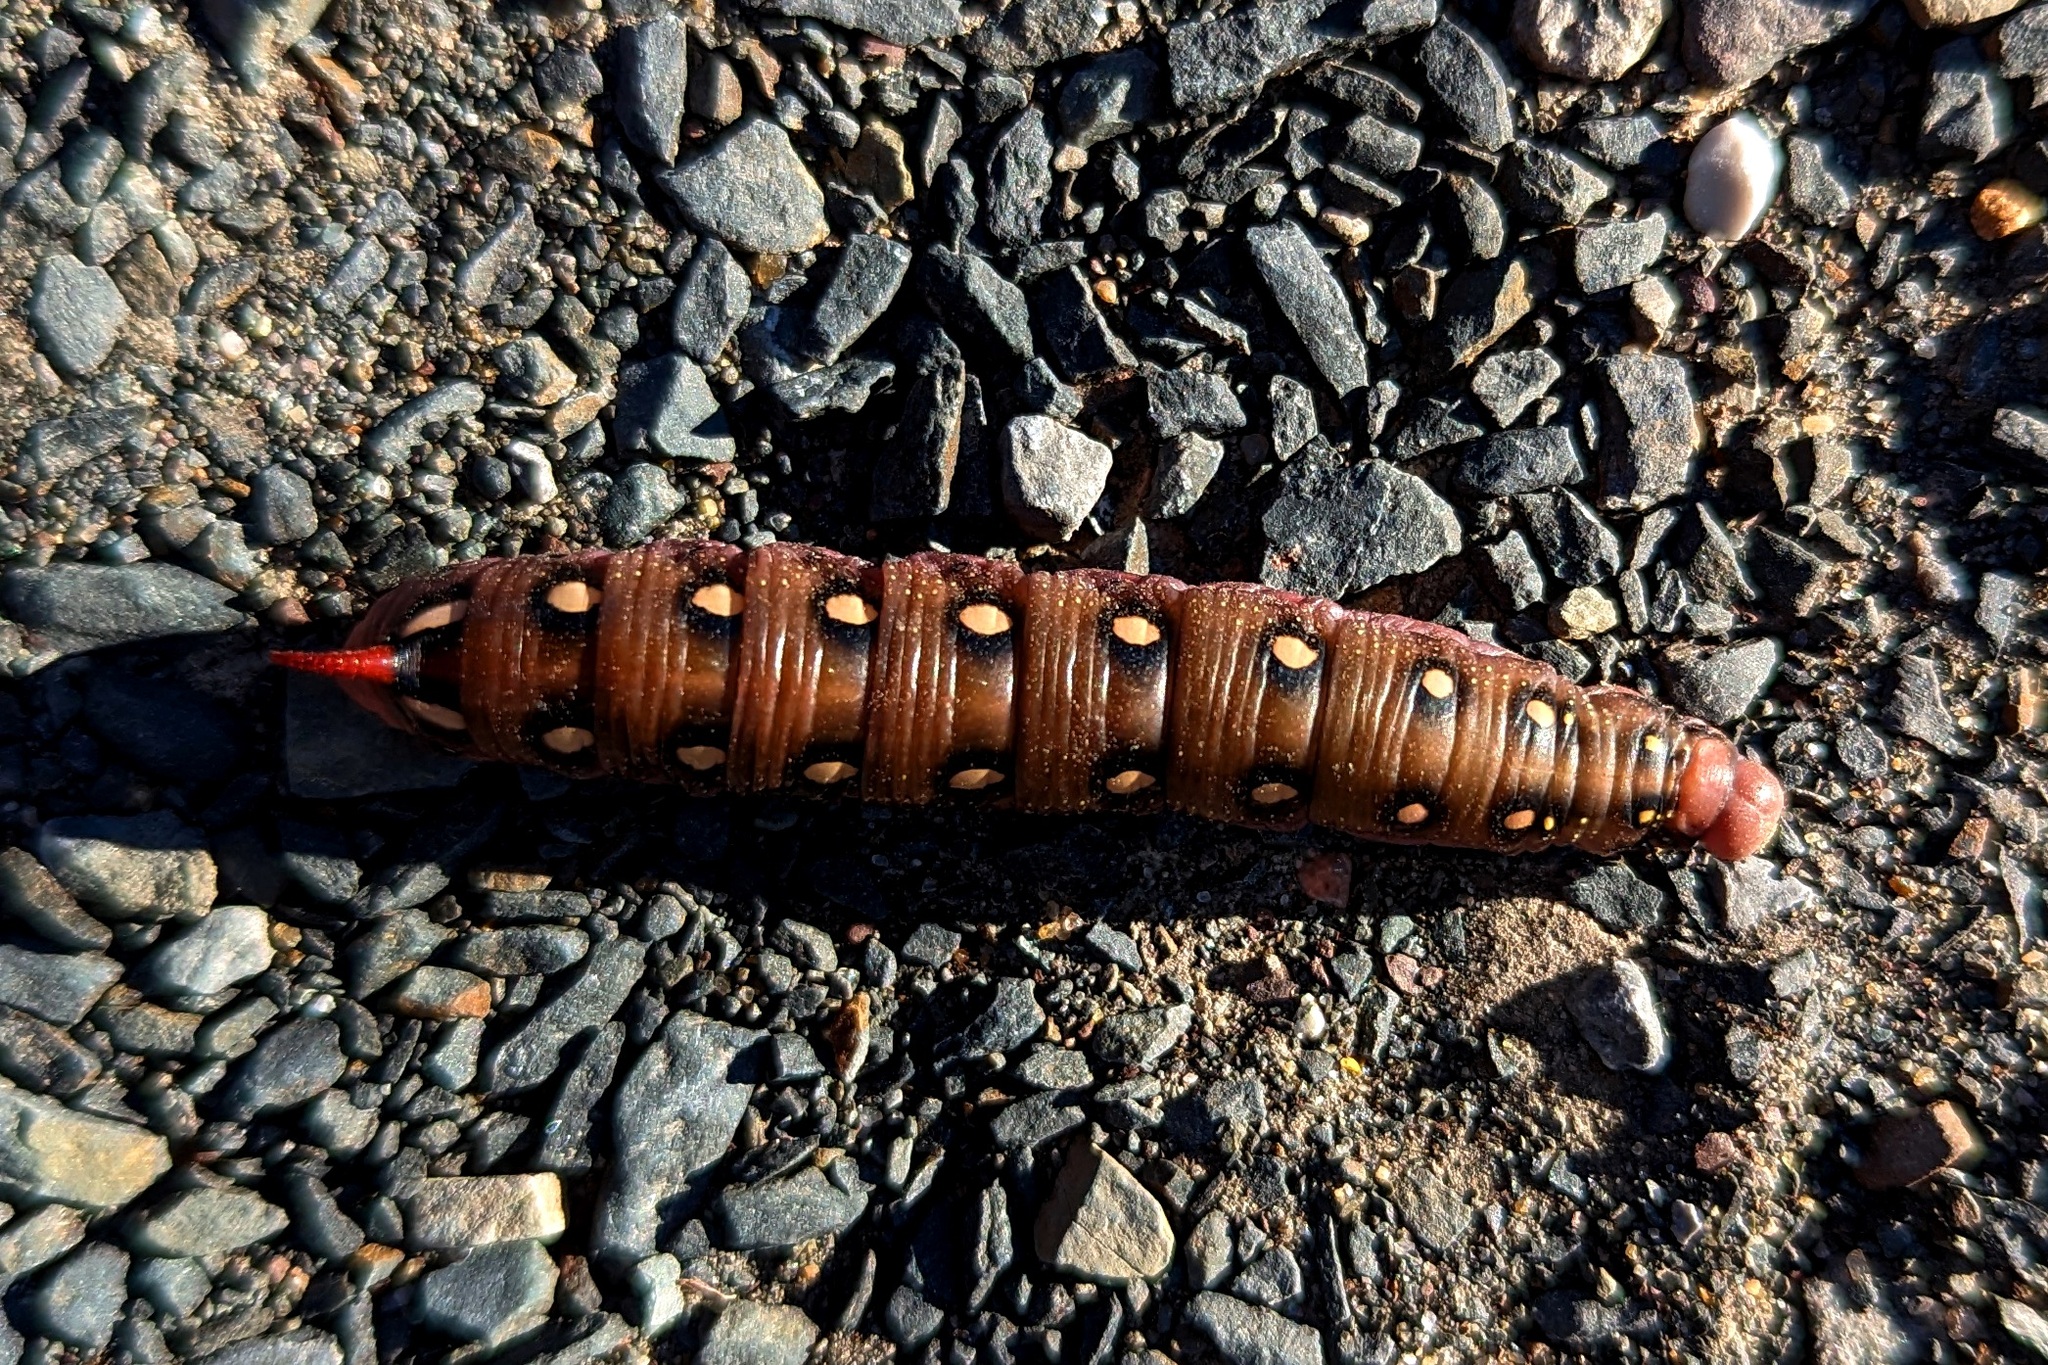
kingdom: Animalia
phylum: Arthropoda
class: Insecta
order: Lepidoptera
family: Sphingidae
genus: Hyles
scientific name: Hyles gallii
